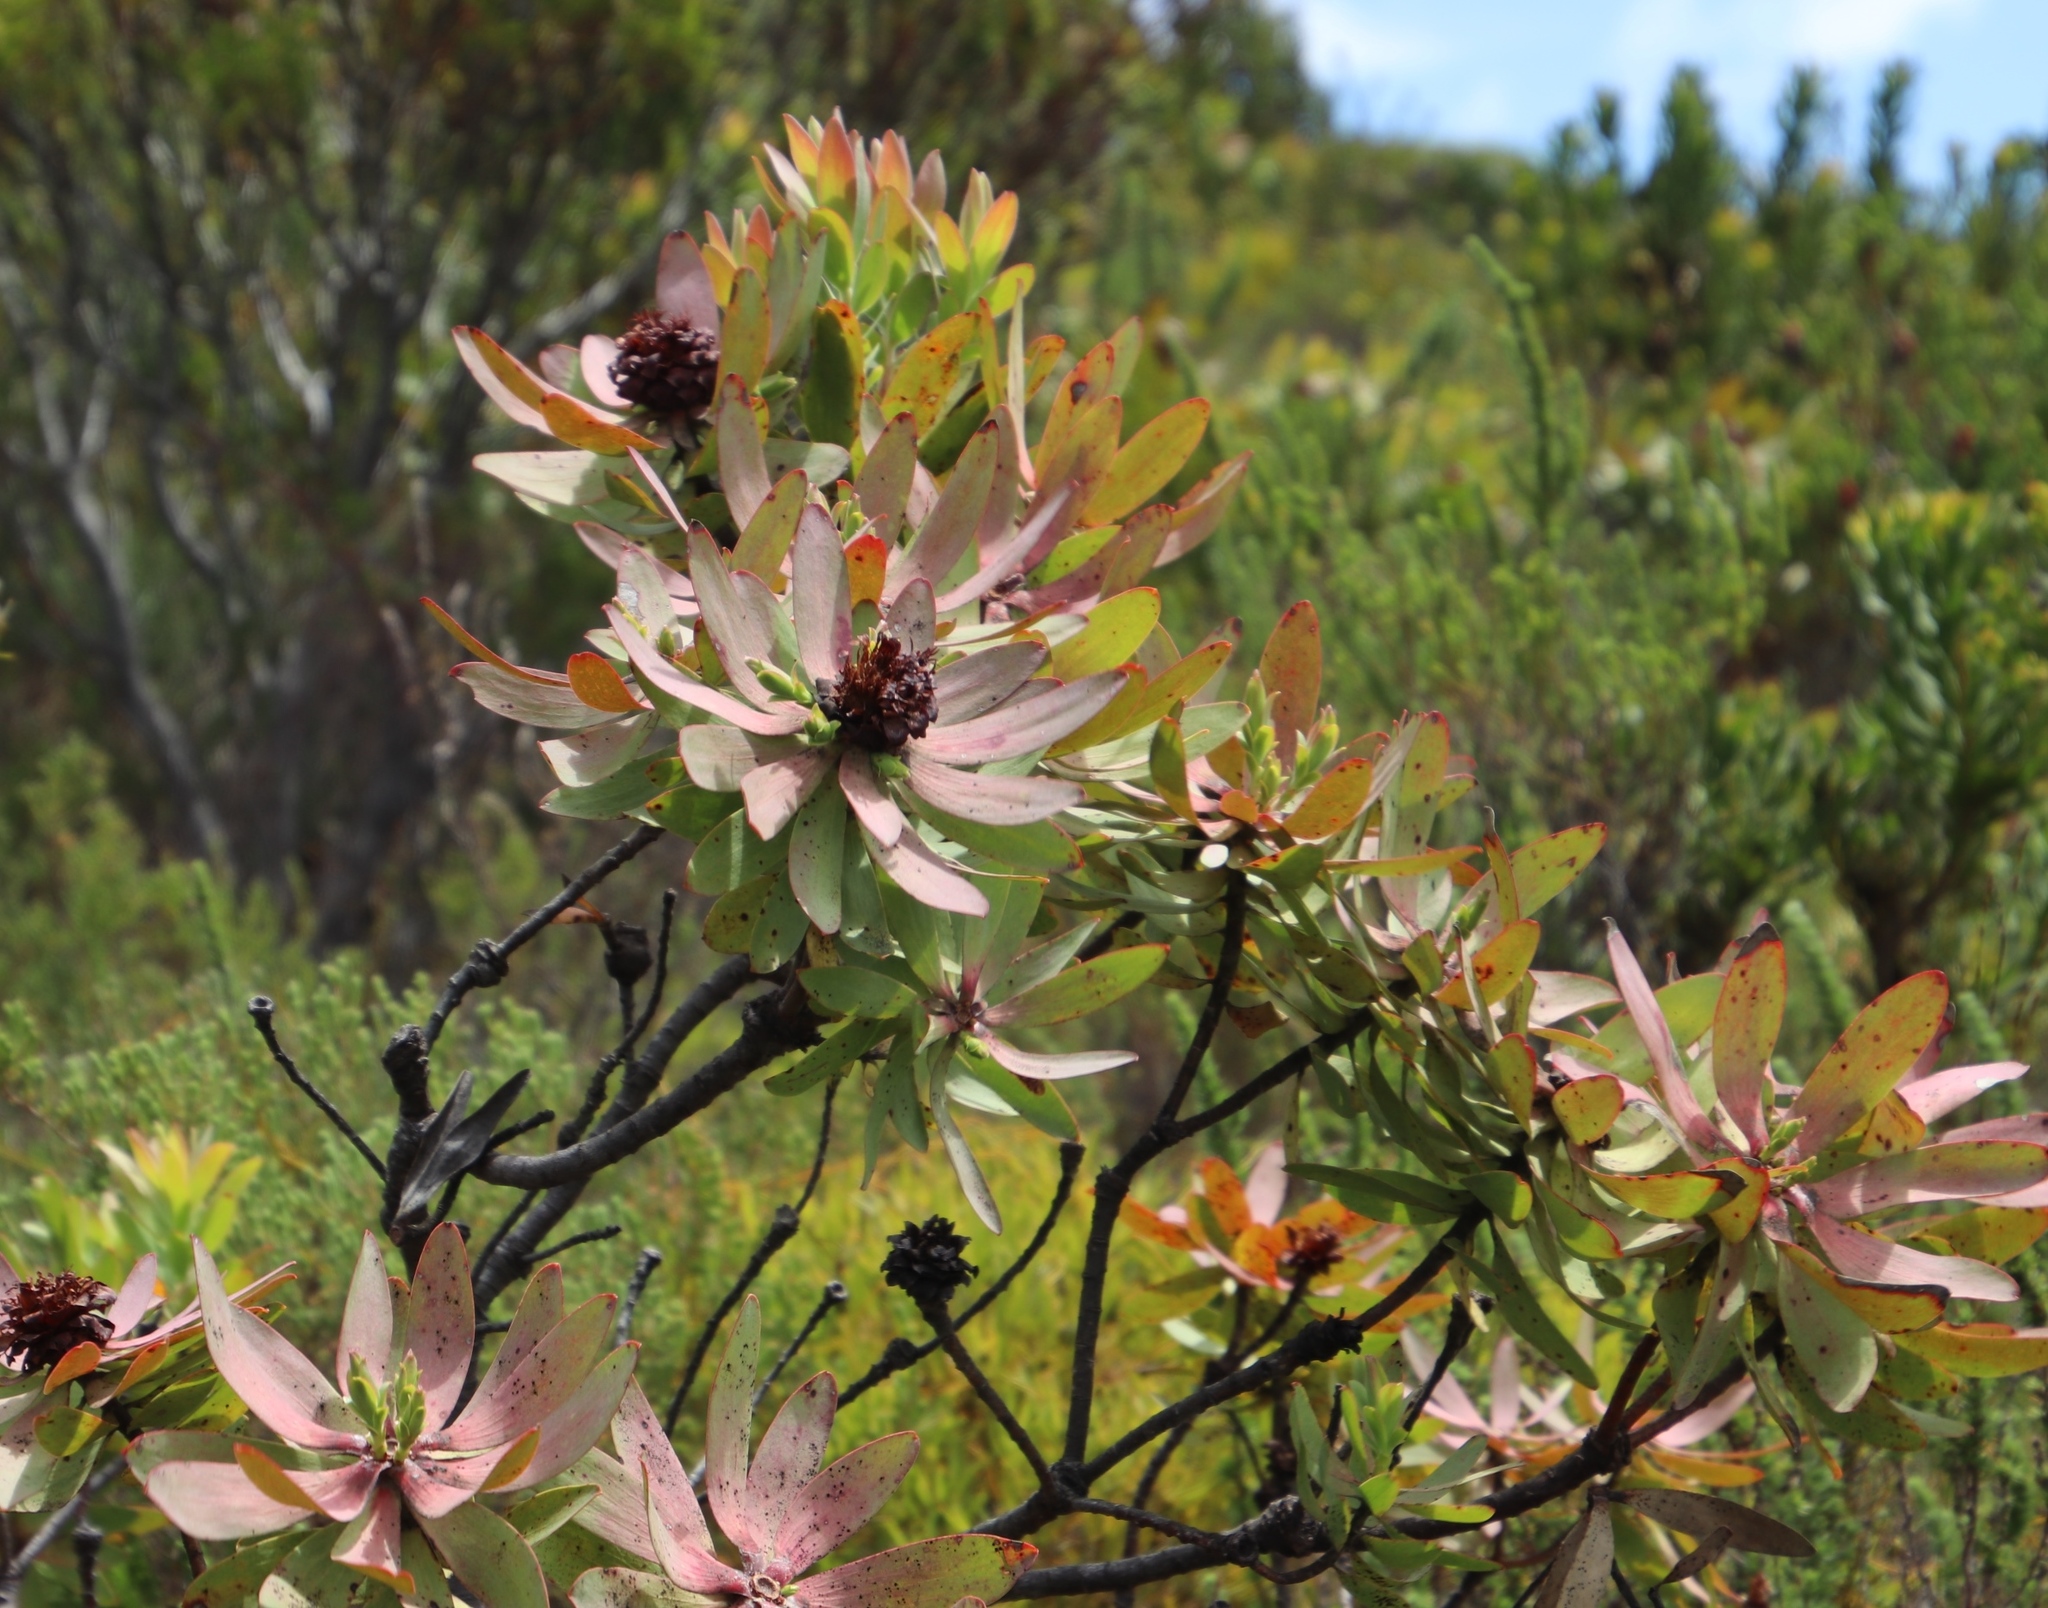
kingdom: Plantae
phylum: Tracheophyta
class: Magnoliopsida
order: Proteales
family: Proteaceae
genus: Leucadendron
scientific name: Leucadendron tinctum
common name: Spicy conebush
